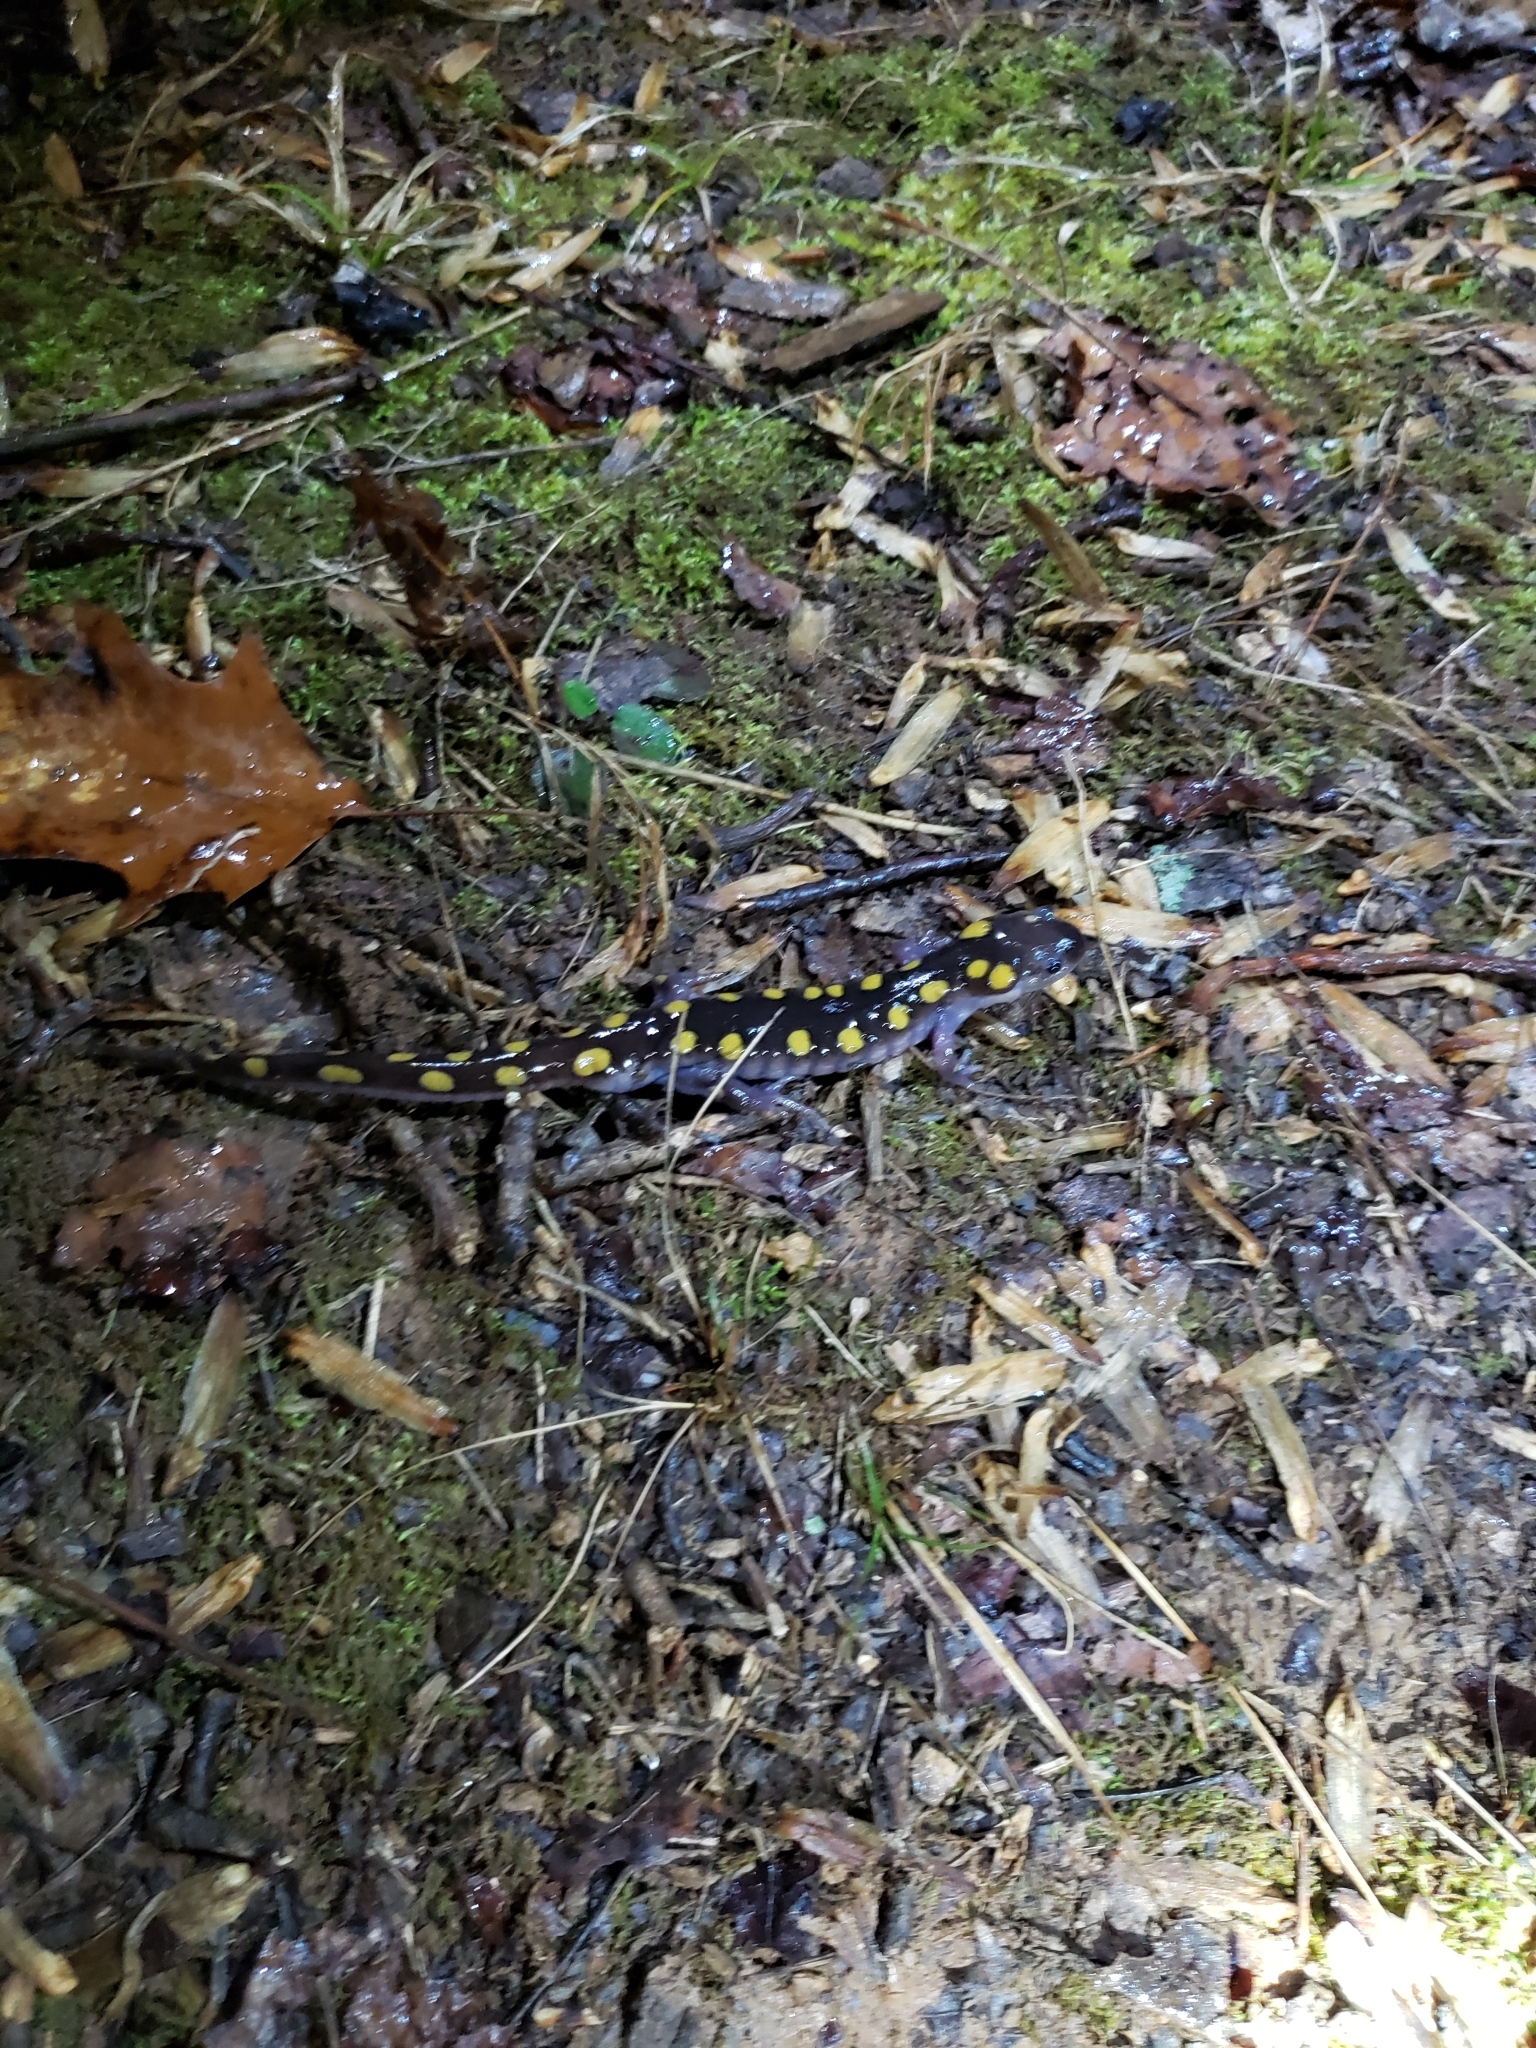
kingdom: Animalia
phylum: Chordata
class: Amphibia
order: Caudata
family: Ambystomatidae
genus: Ambystoma
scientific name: Ambystoma maculatum
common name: Spotted salamander
